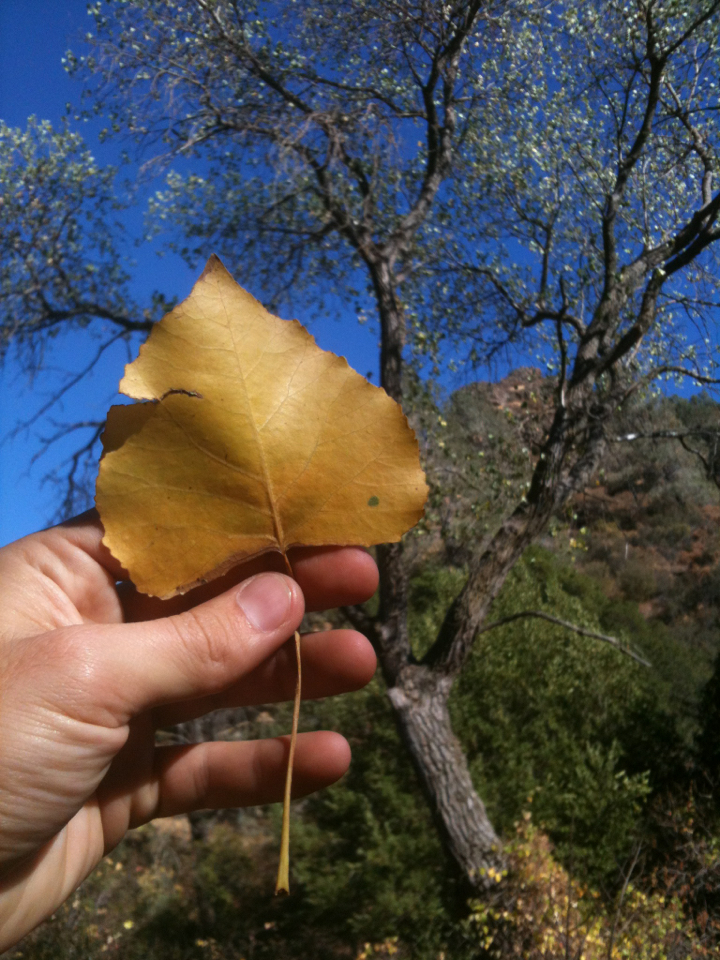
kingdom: Plantae
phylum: Tracheophyta
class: Magnoliopsida
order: Malpighiales
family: Salicaceae
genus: Populus
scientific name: Populus fremontii
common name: Fremont's cottonwood
